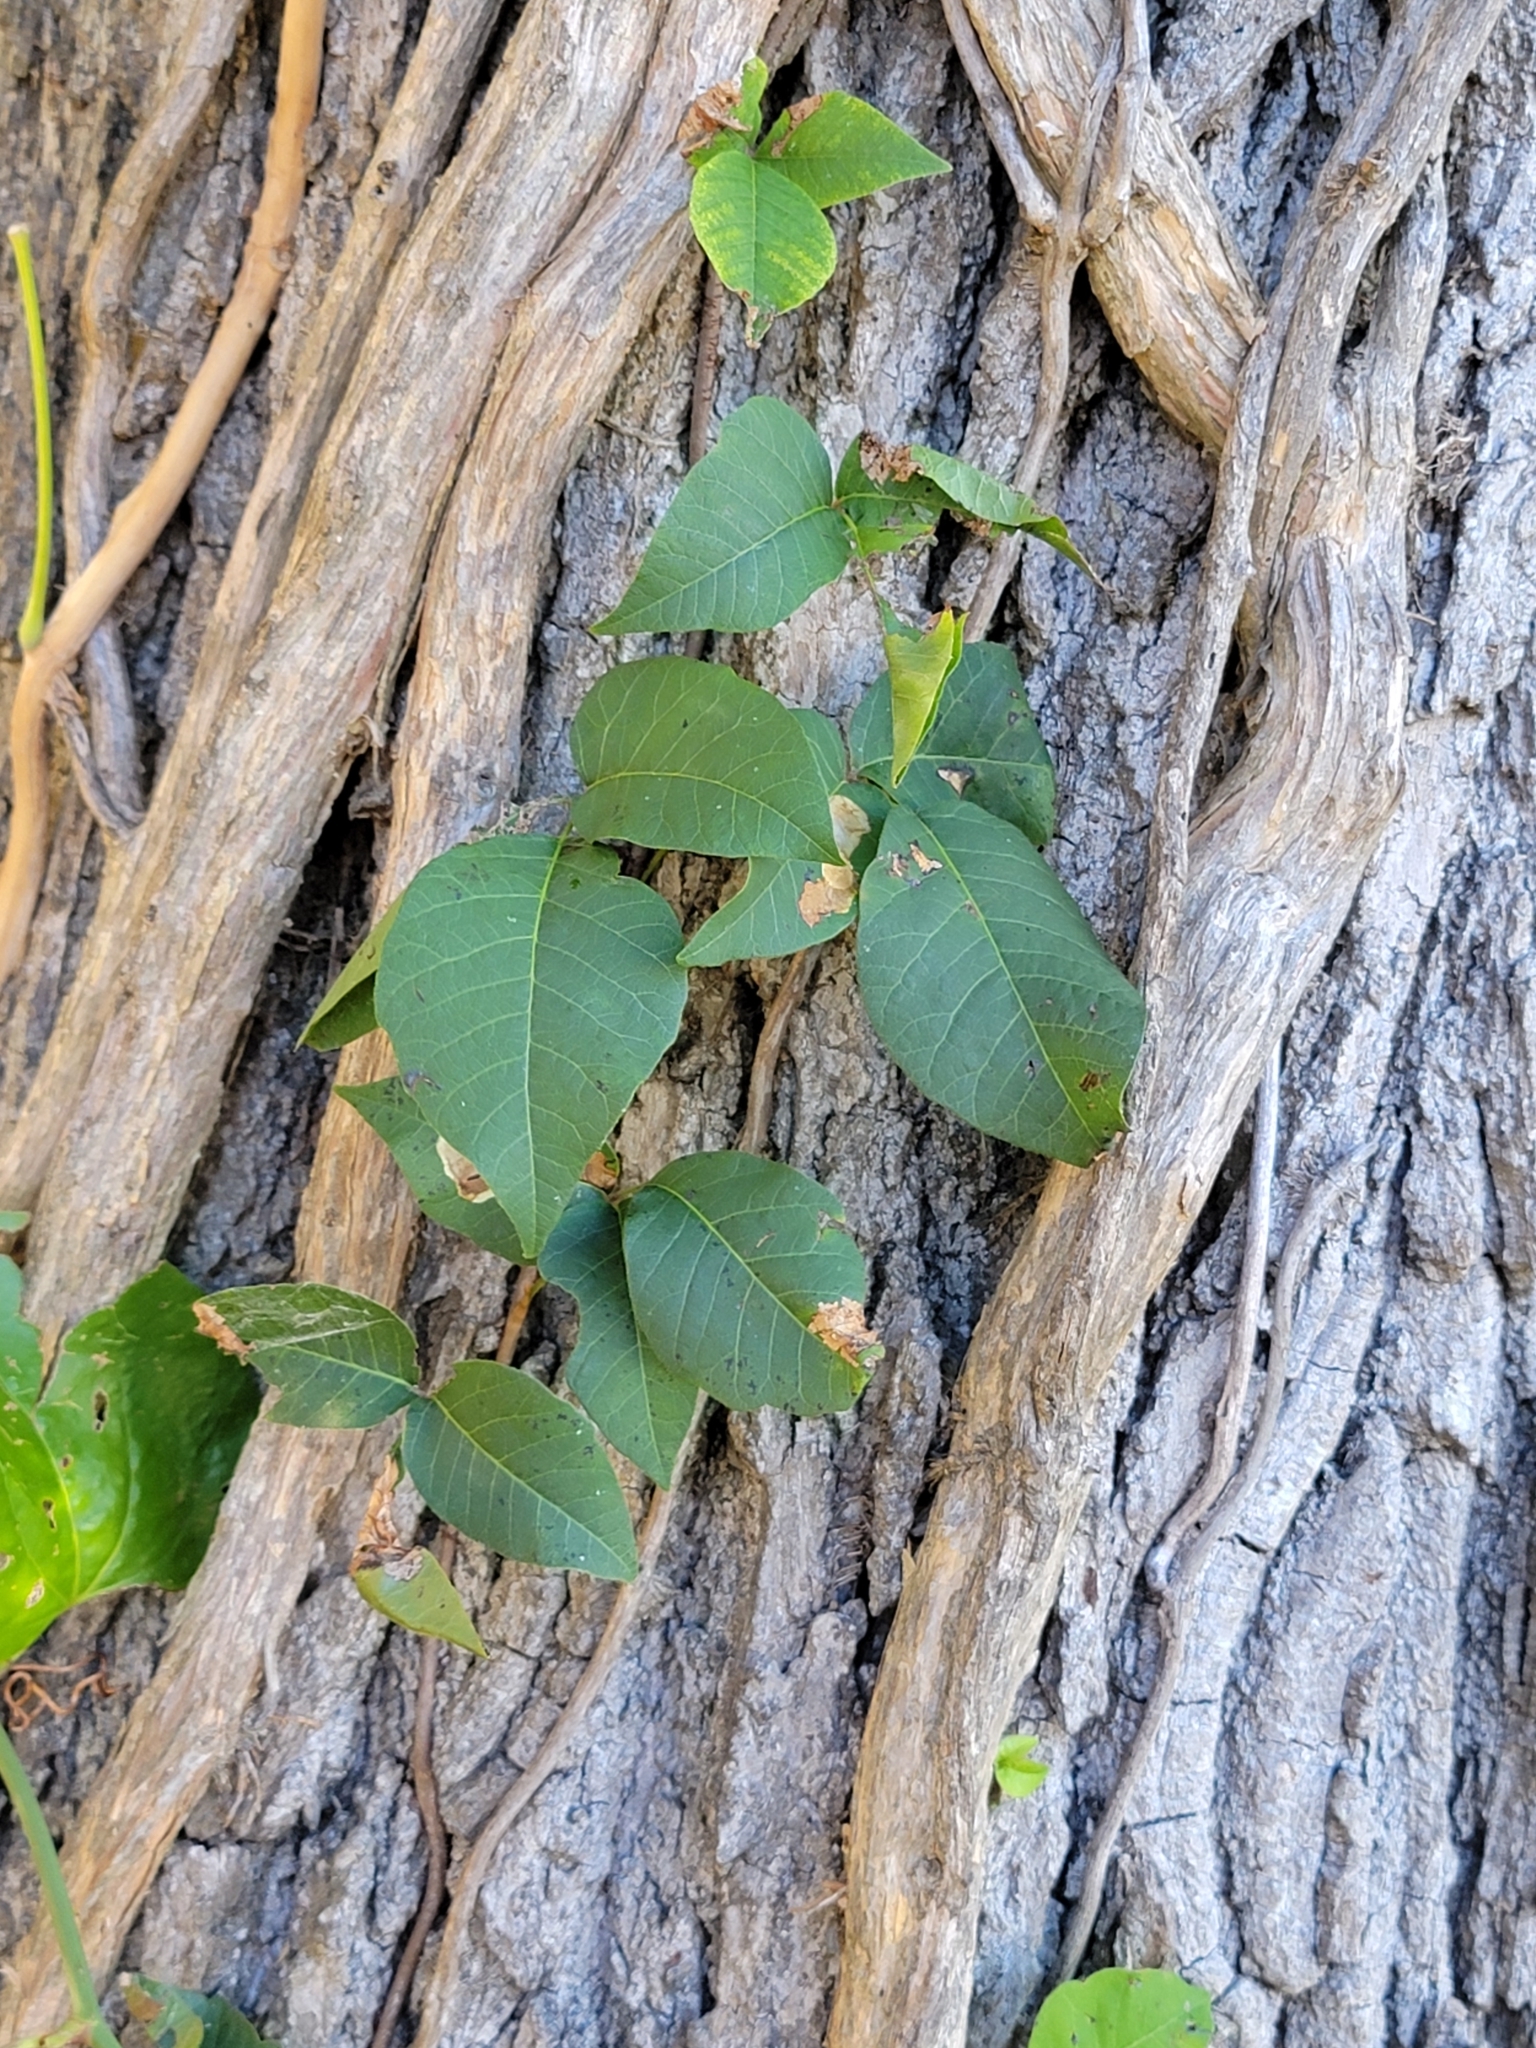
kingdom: Plantae
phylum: Tracheophyta
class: Magnoliopsida
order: Sapindales
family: Anacardiaceae
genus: Toxicodendron
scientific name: Toxicodendron radicans
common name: Poison ivy
